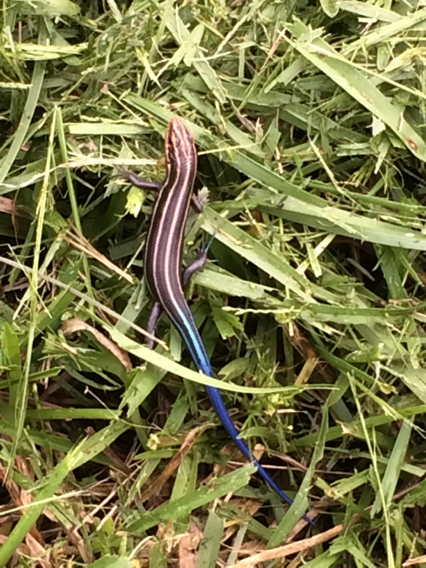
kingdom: Animalia
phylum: Chordata
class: Squamata
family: Scincidae
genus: Plestiodon
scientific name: Plestiodon fasciatus
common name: Five-lined skink
